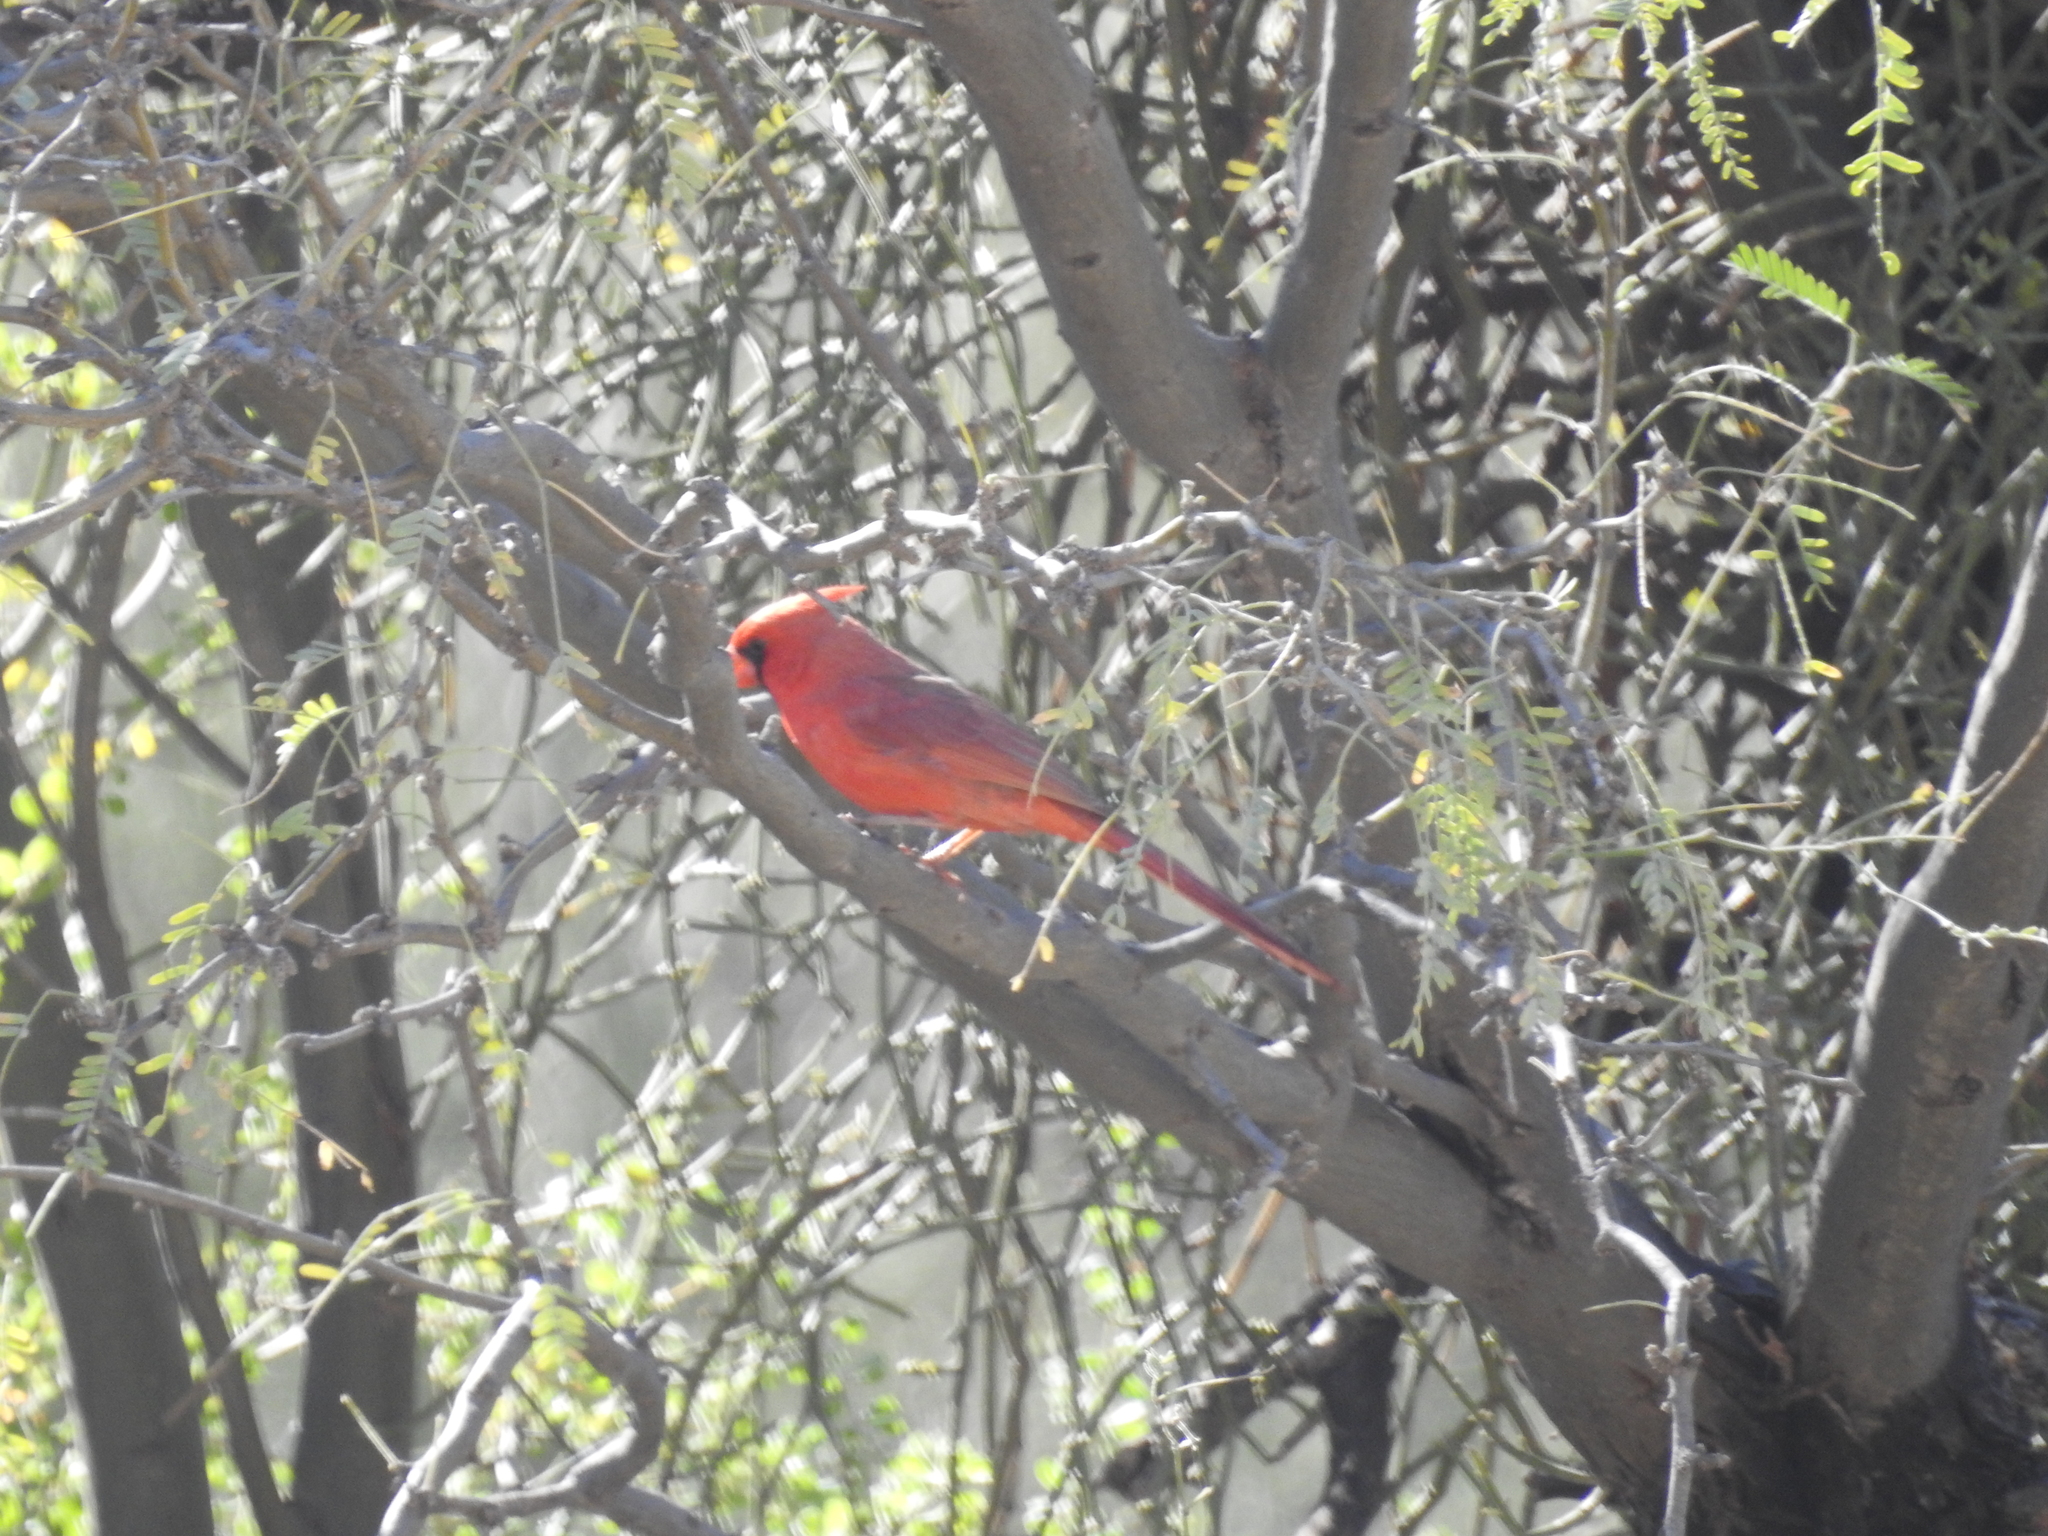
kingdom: Animalia
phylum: Chordata
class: Aves
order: Passeriformes
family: Cardinalidae
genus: Cardinalis
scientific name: Cardinalis cardinalis
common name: Northern cardinal
